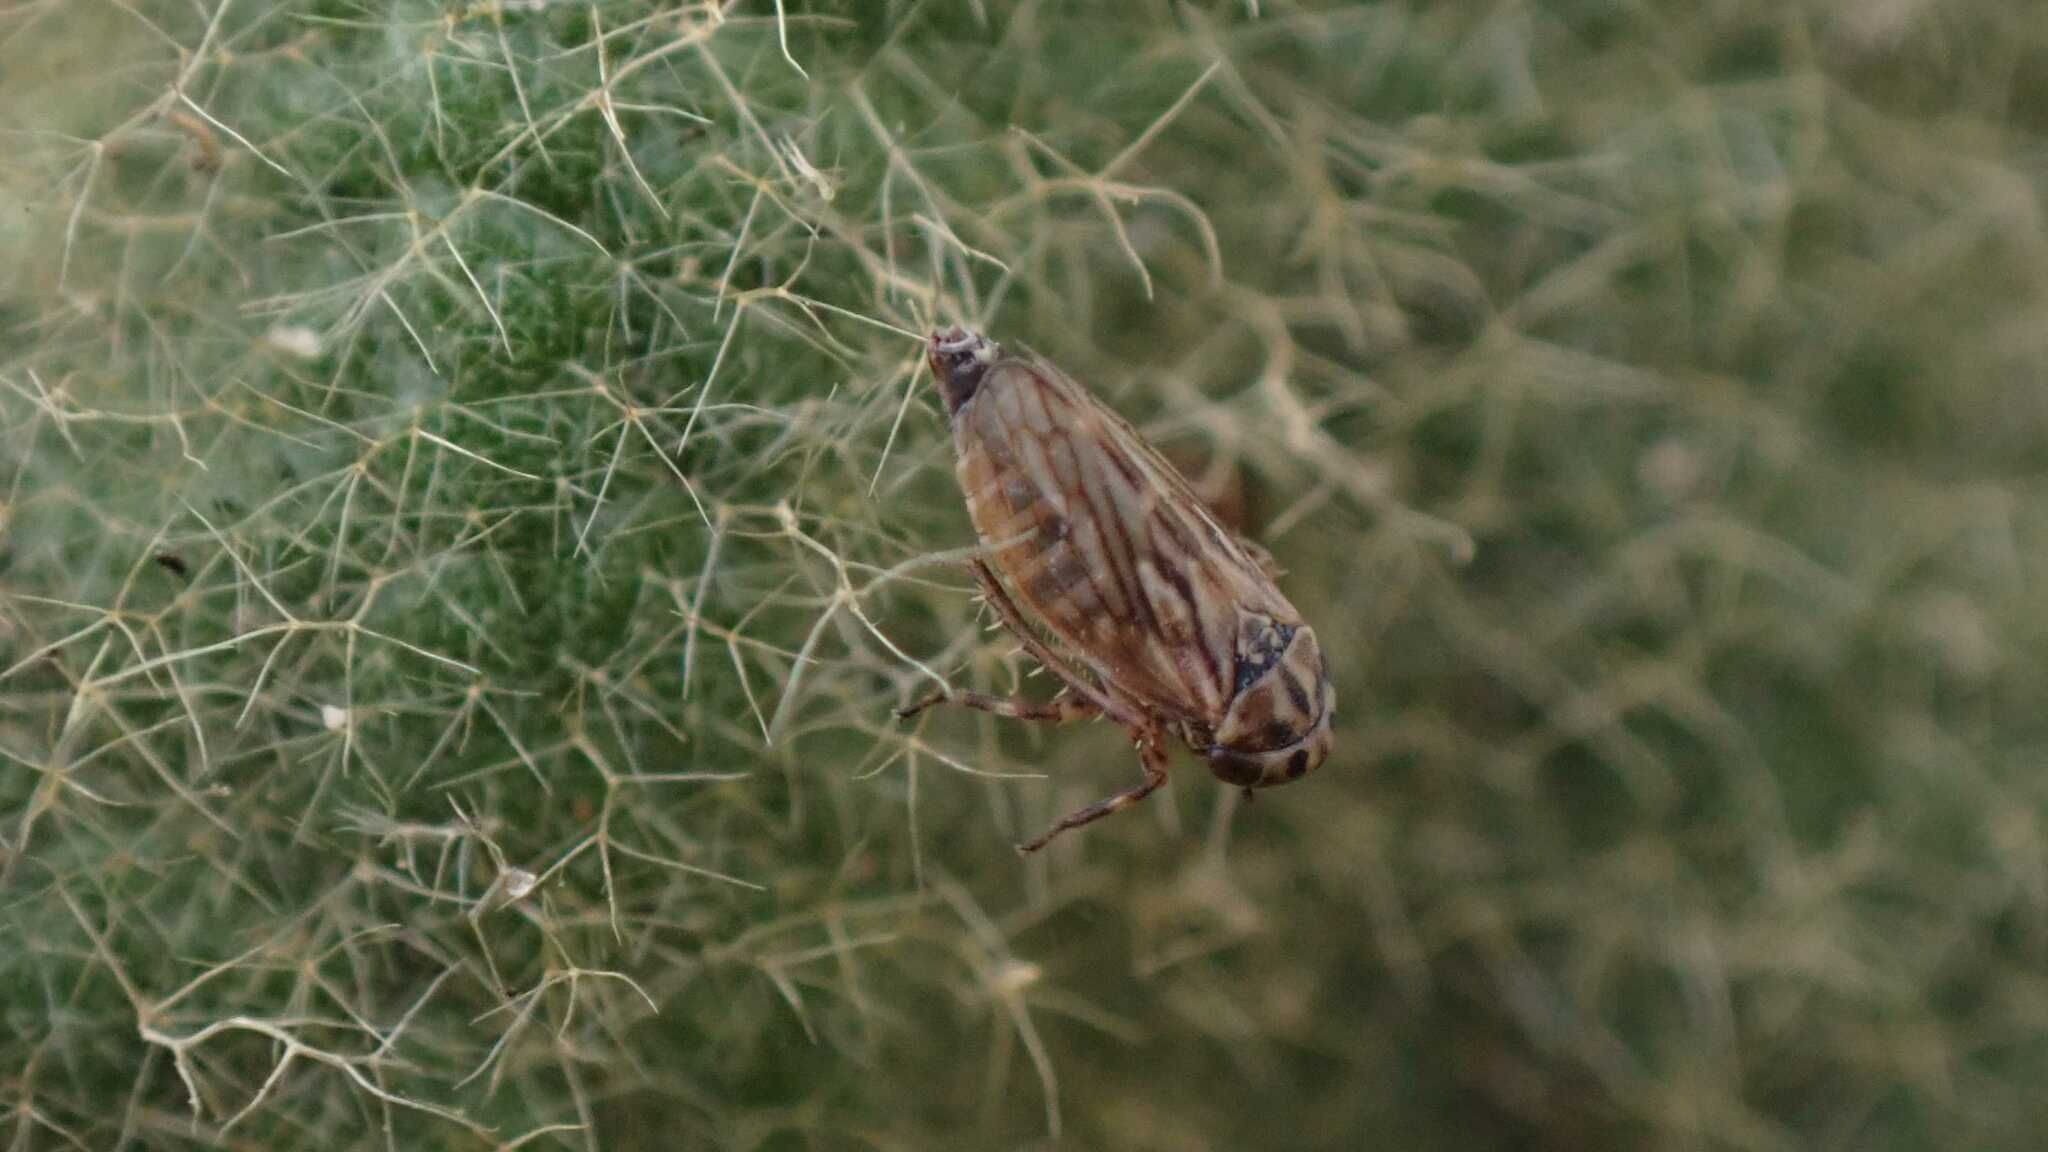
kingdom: Animalia
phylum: Arthropoda
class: Insecta
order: Hemiptera
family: Cicadellidae
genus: Anaceratagallia
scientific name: Anaceratagallia ribauti
